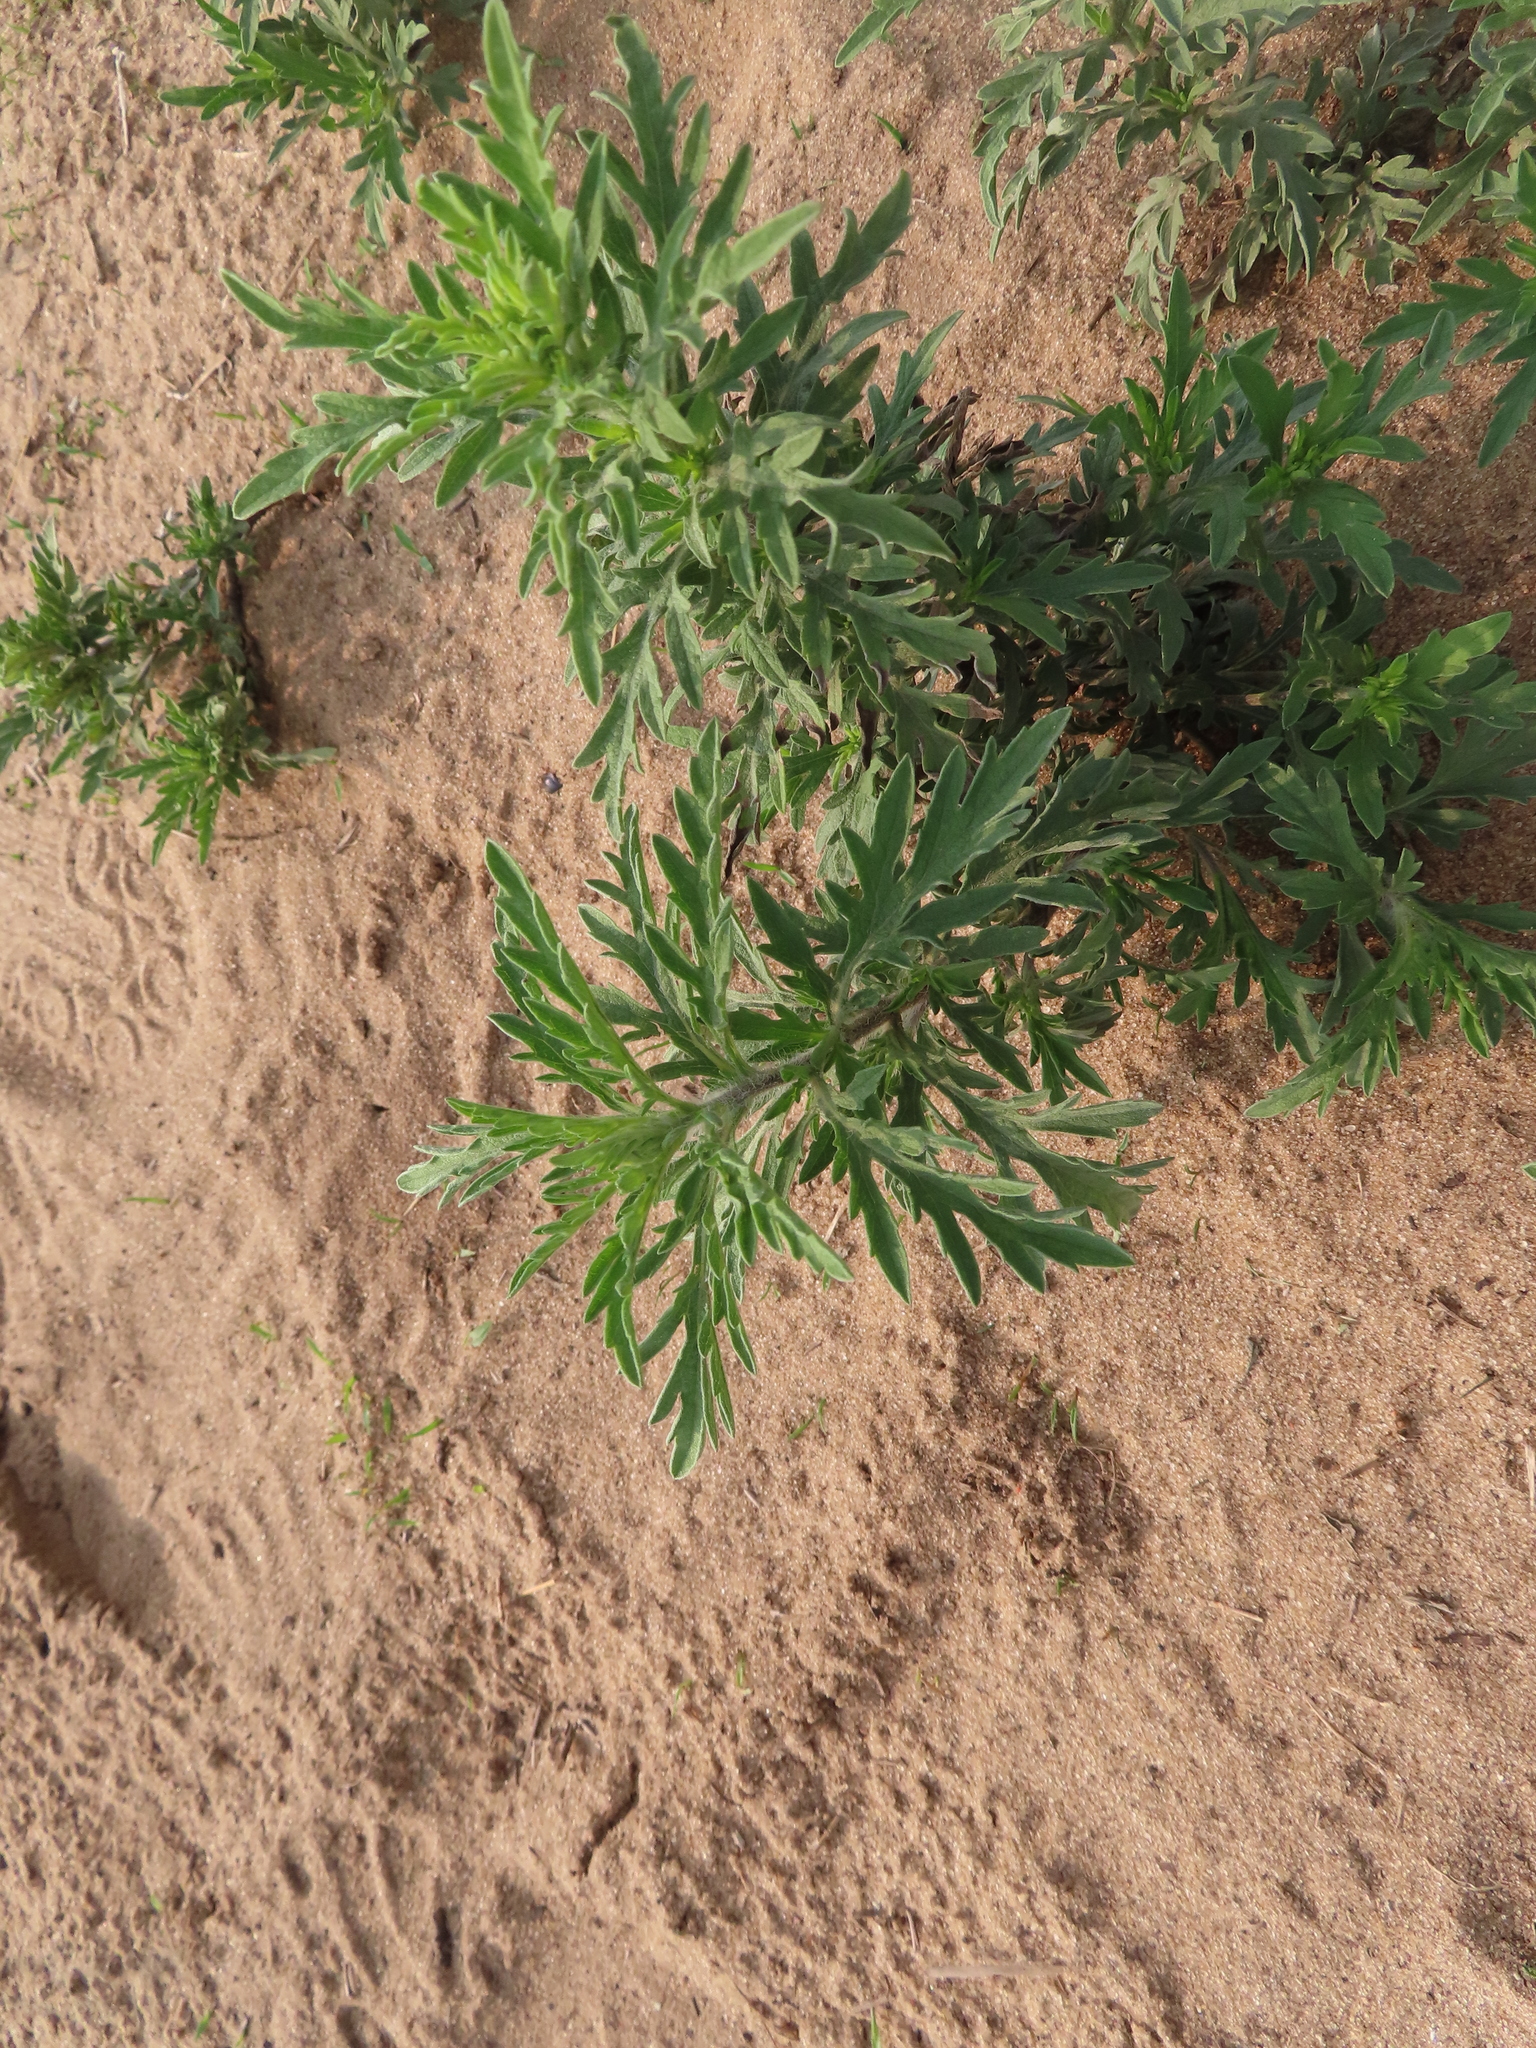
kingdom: Plantae
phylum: Tracheophyta
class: Magnoliopsida
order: Asterales
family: Asteraceae
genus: Ambrosia
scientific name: Ambrosia artemisiifolia
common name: Annual ragweed
